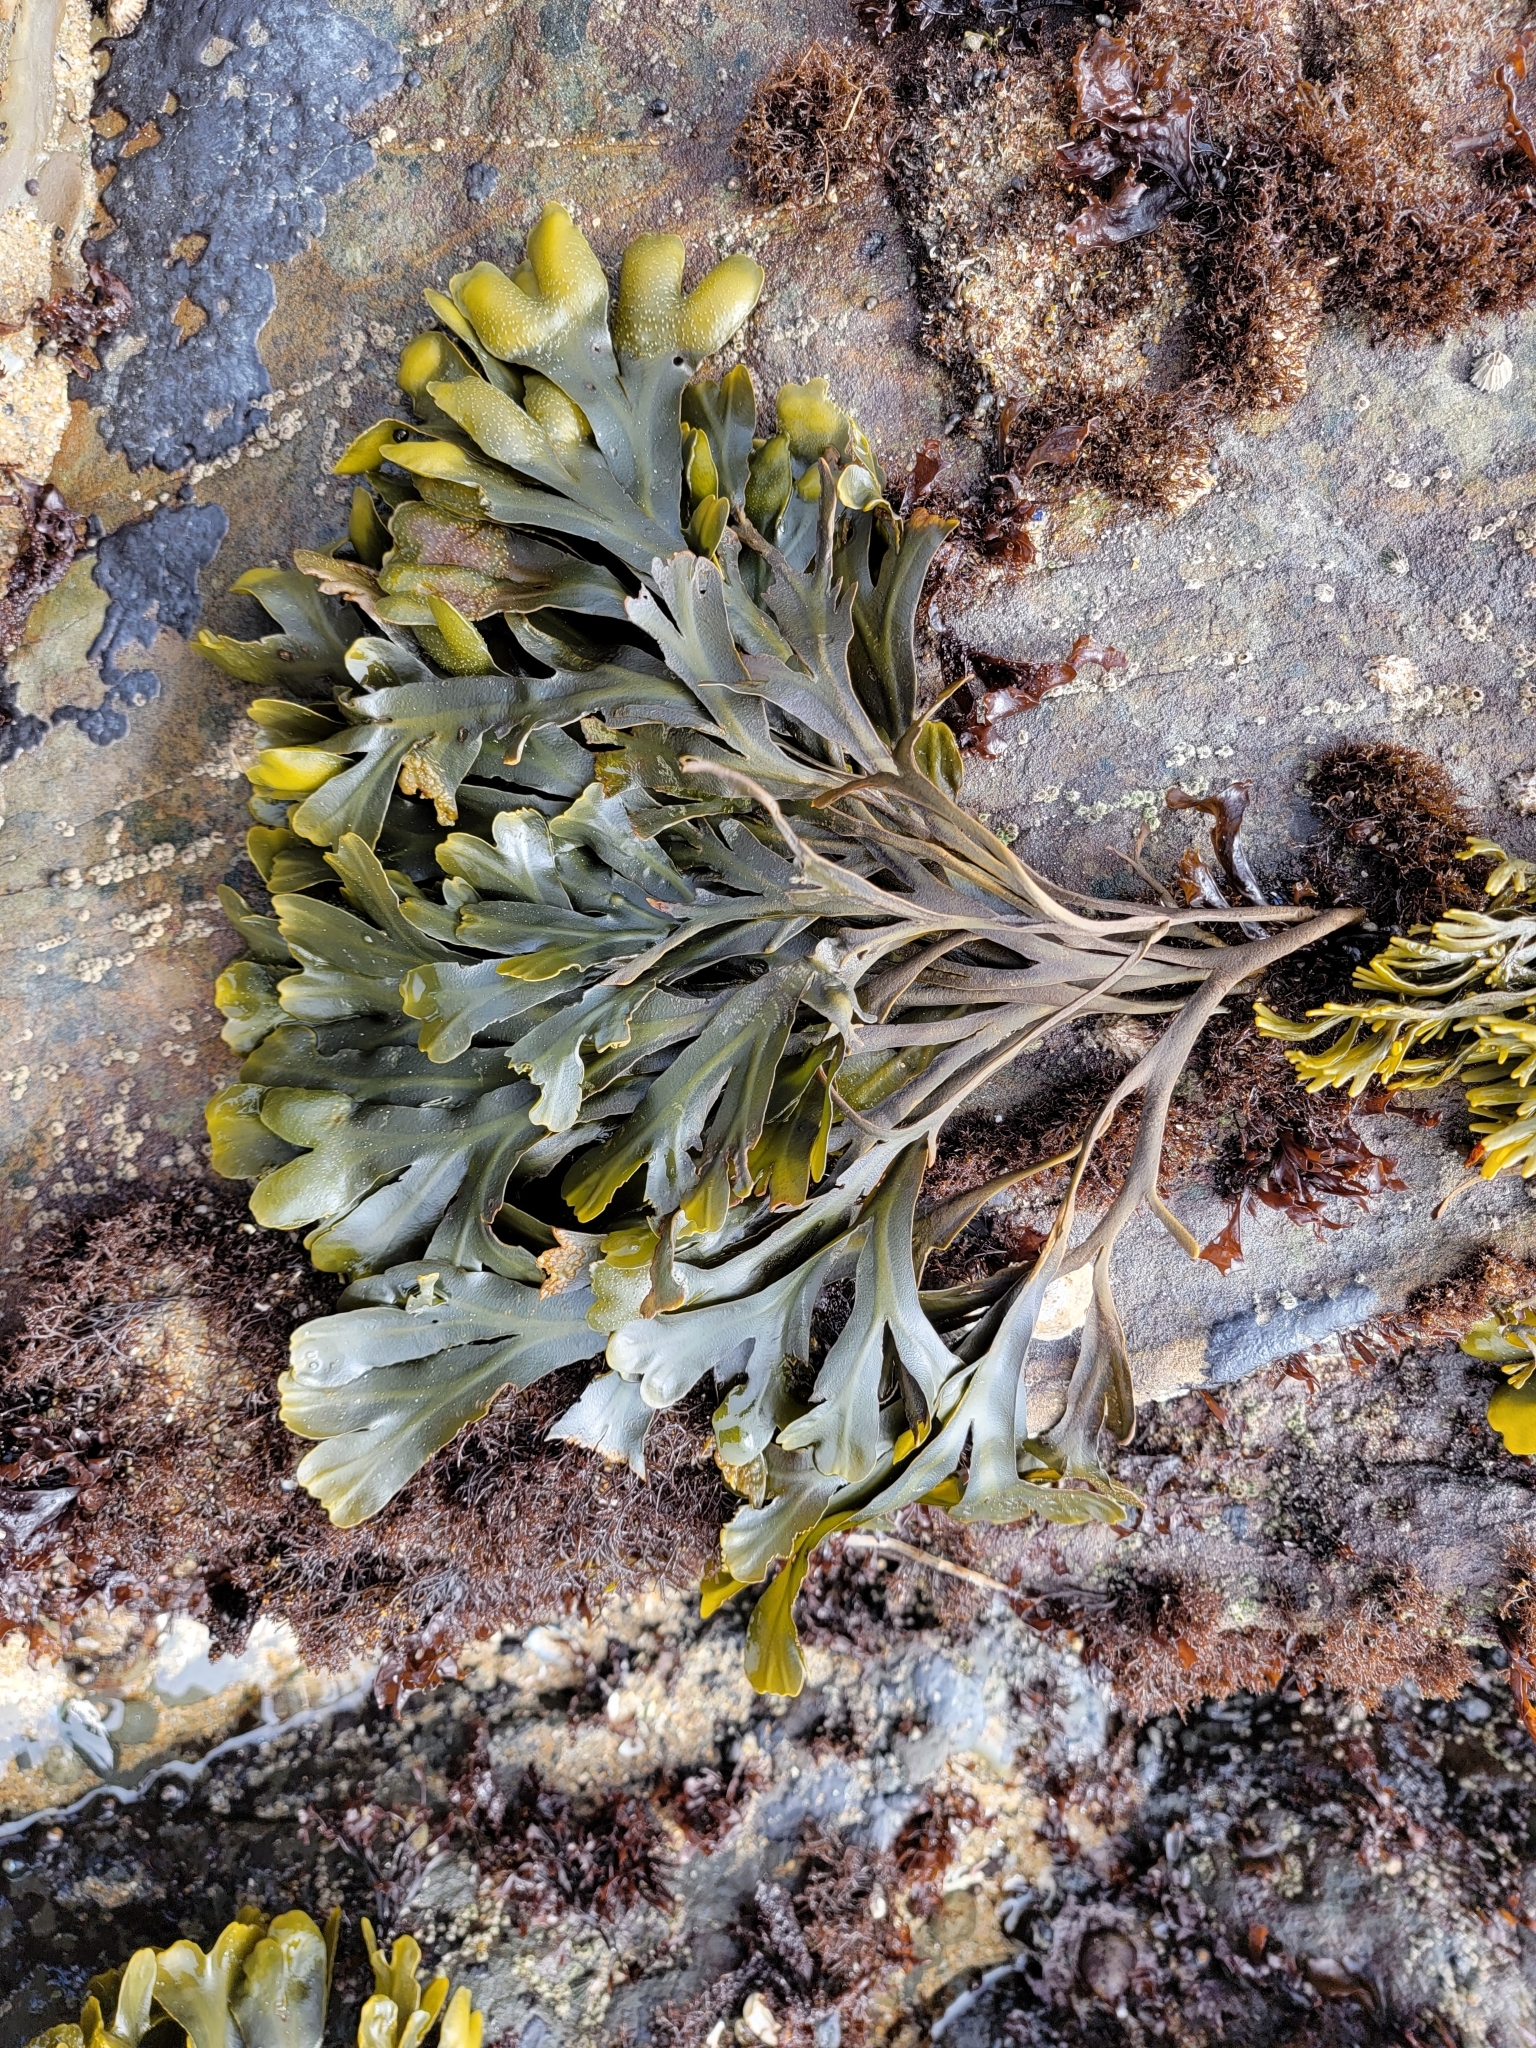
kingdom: Chromista
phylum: Ochrophyta
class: Phaeophyceae
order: Fucales
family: Fucaceae
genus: Fucus
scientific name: Fucus distichus
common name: Rockweed
